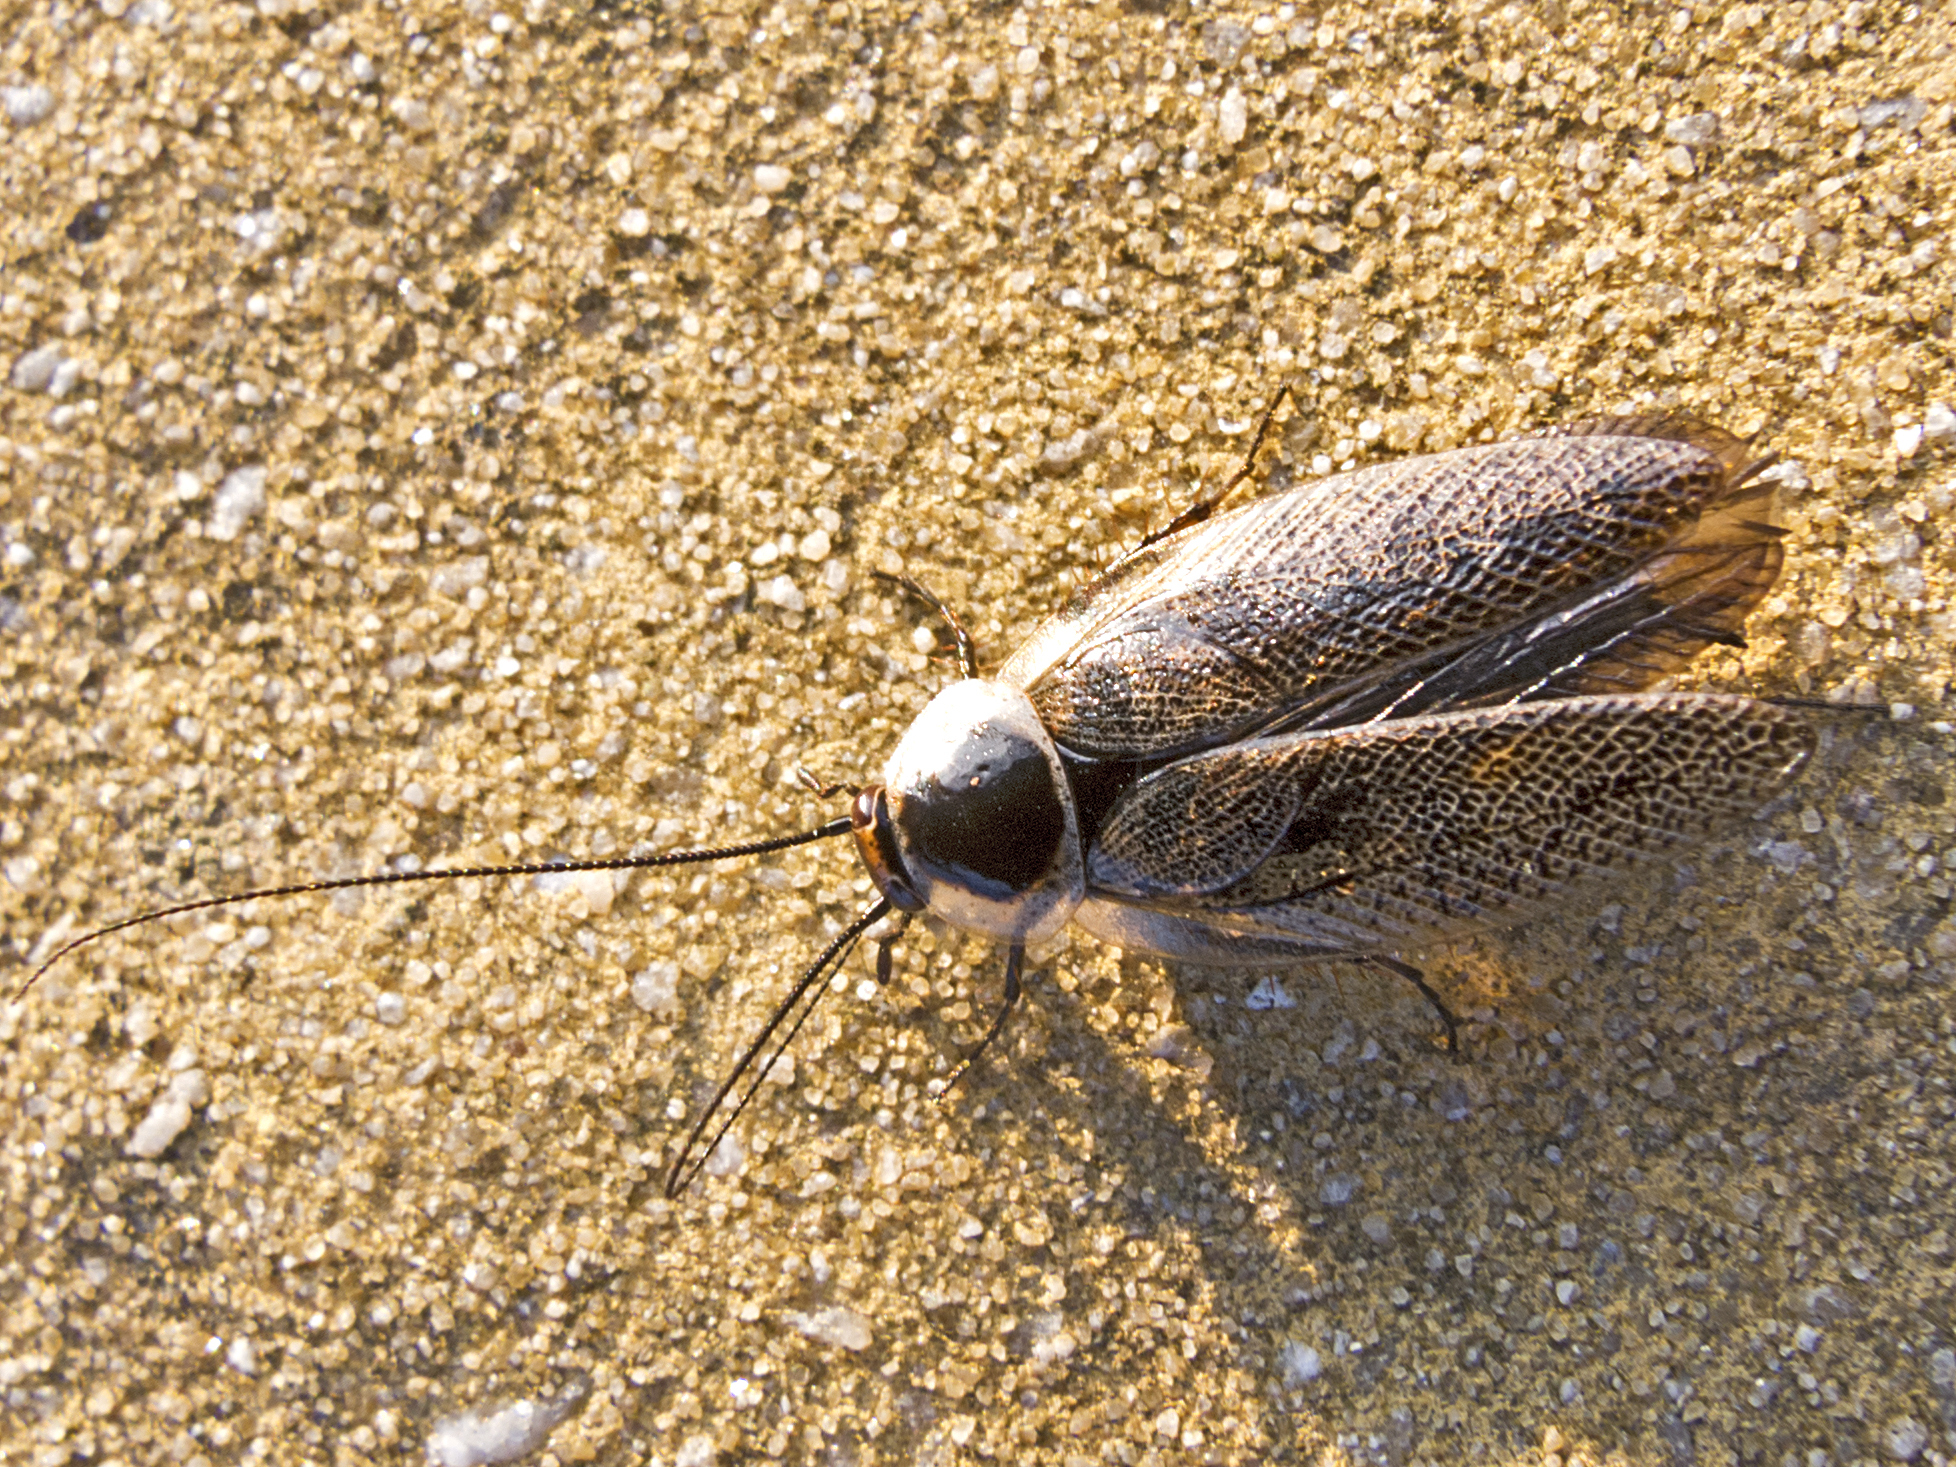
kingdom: Animalia
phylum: Arthropoda
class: Insecta
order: Blattodea
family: Ectobiidae
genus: Ectobius
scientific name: Ectobius erythronotus
